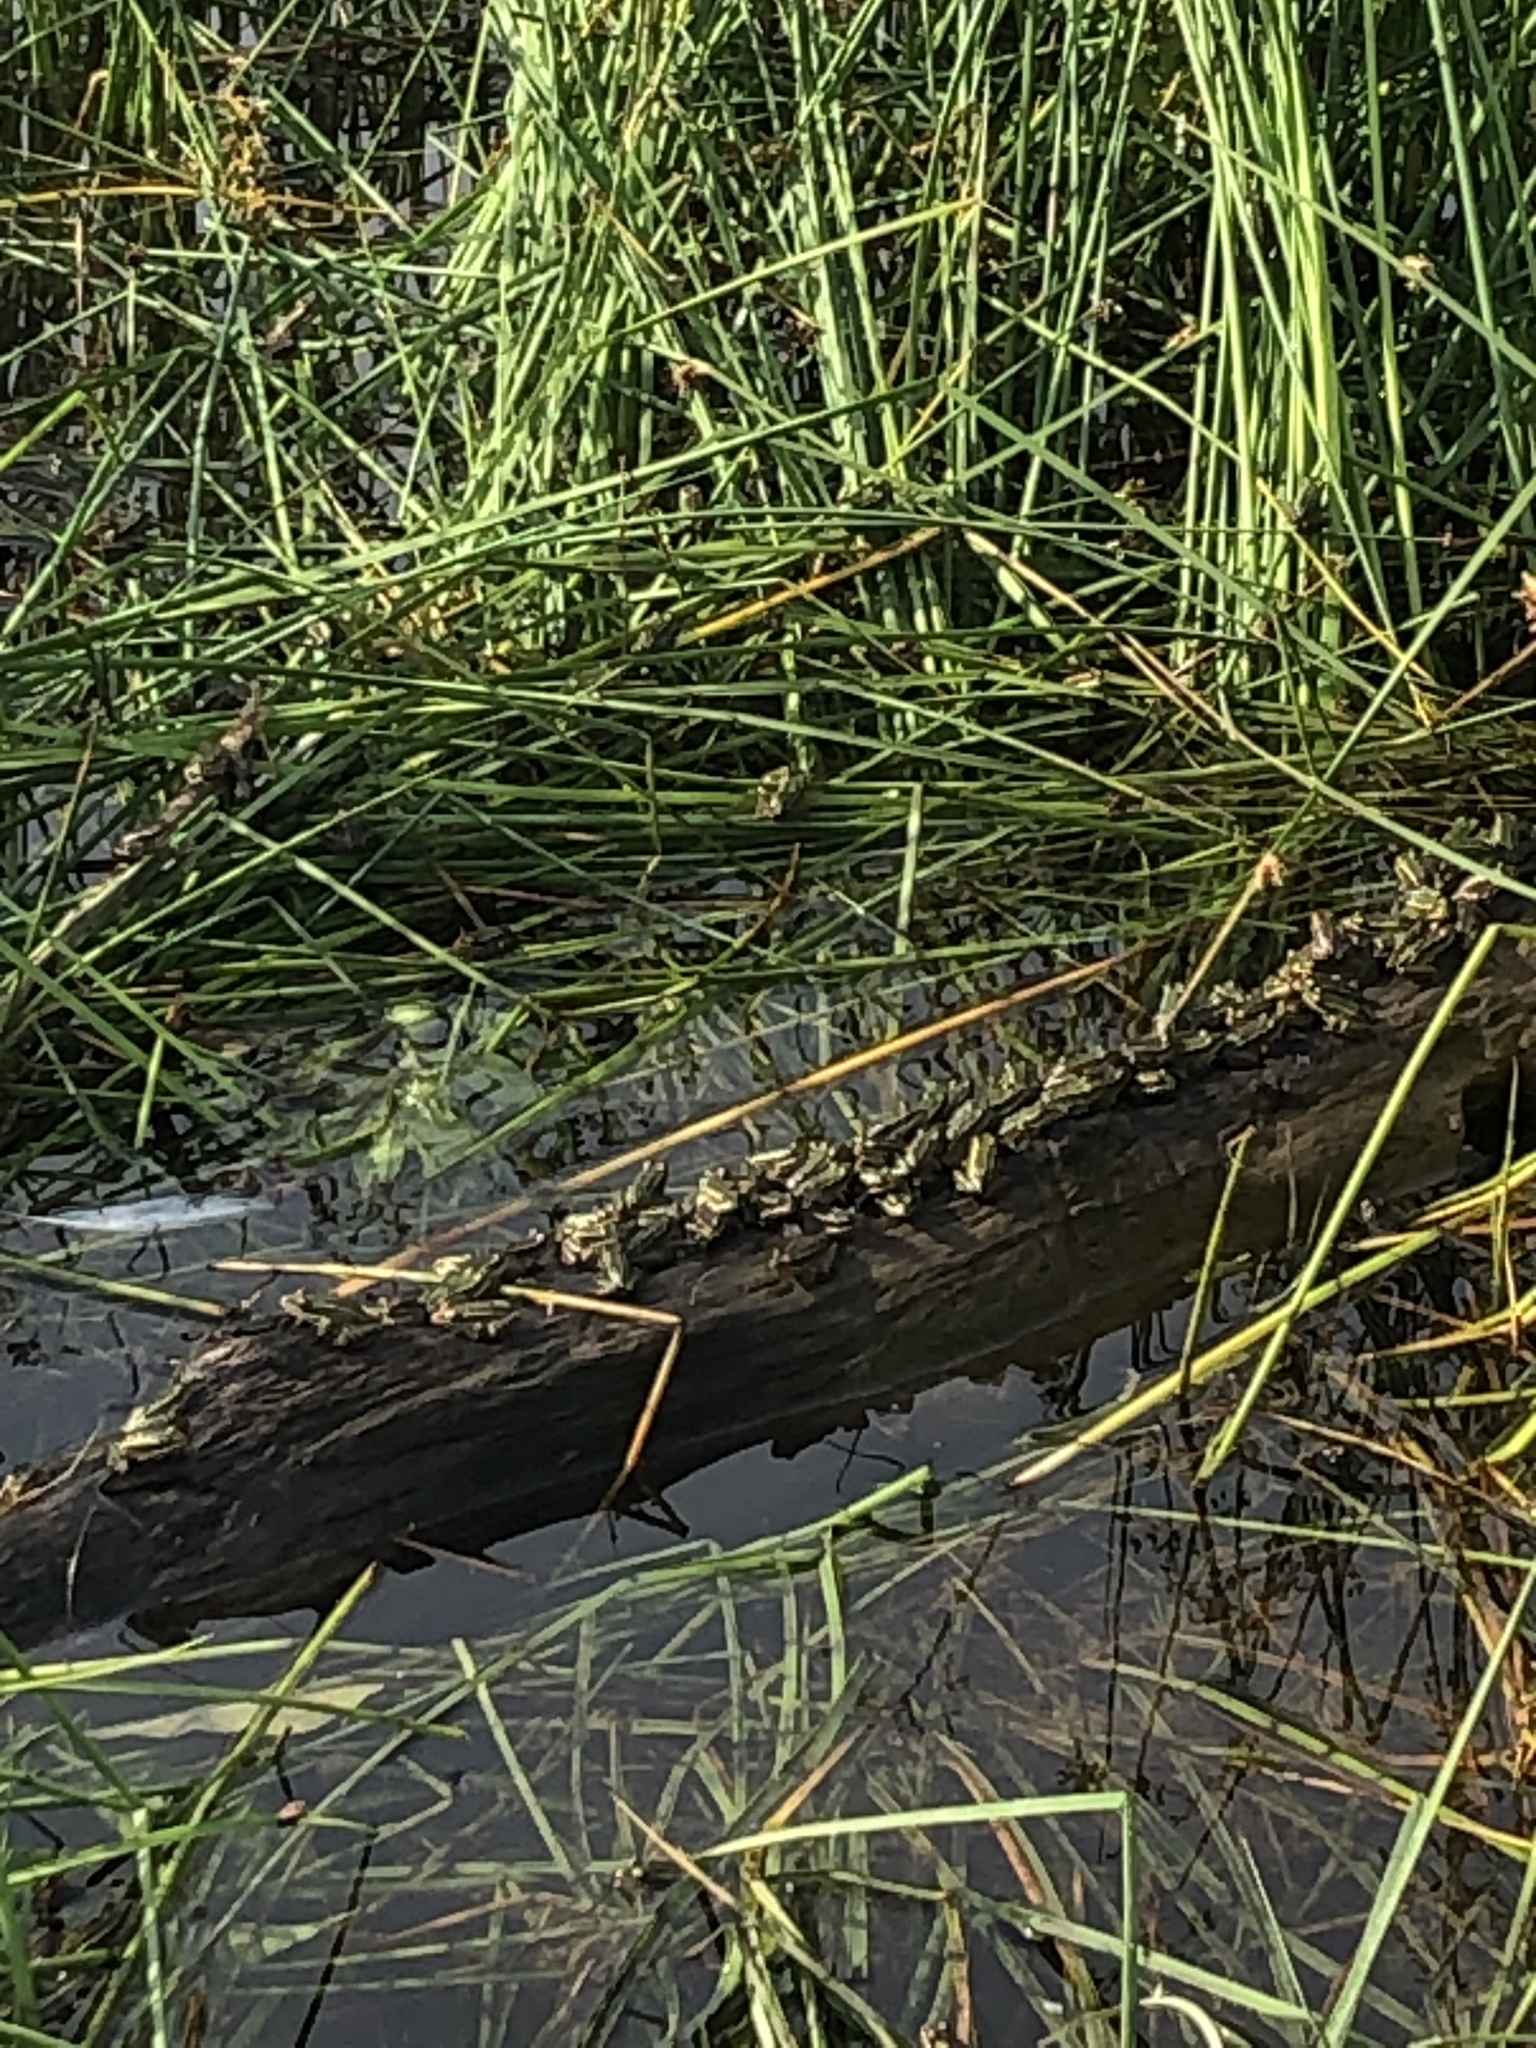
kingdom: Animalia
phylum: Chordata
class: Amphibia
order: Anura
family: Ranidae
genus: Lithobates
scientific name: Lithobates pipiens
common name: Northern leopard frog
